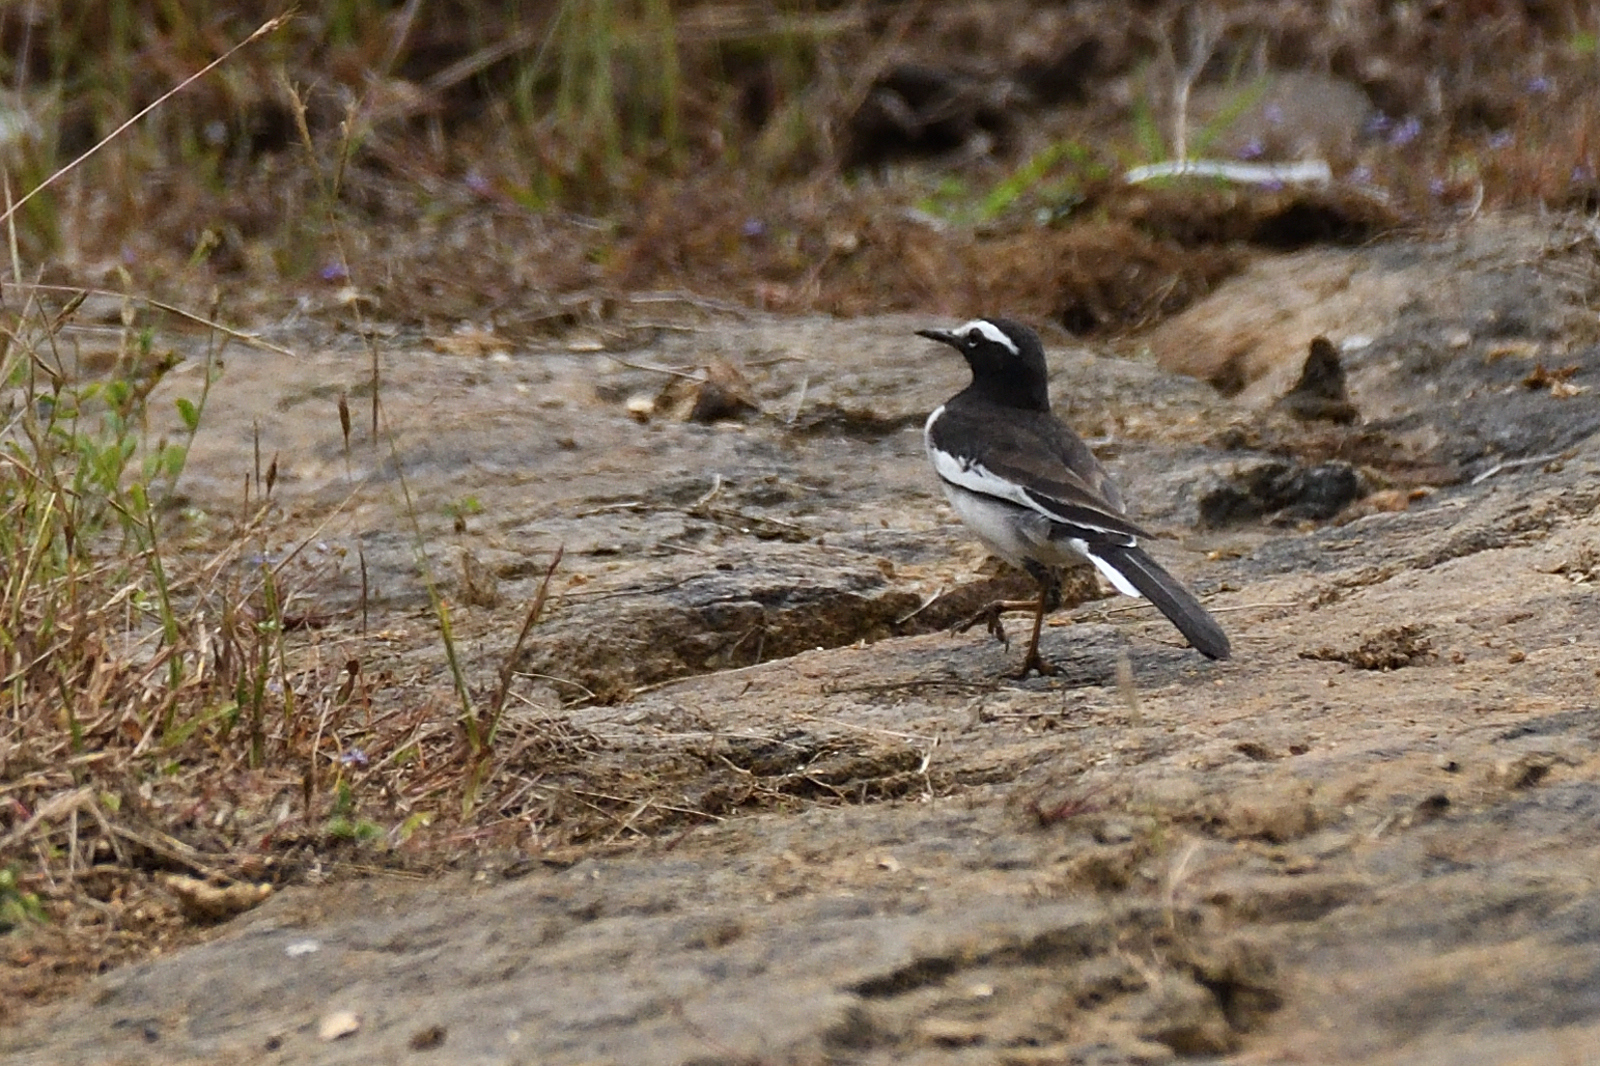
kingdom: Animalia
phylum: Chordata
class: Aves
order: Passeriformes
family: Motacillidae
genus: Motacilla
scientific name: Motacilla maderaspatensis
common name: White-browed wagtail
